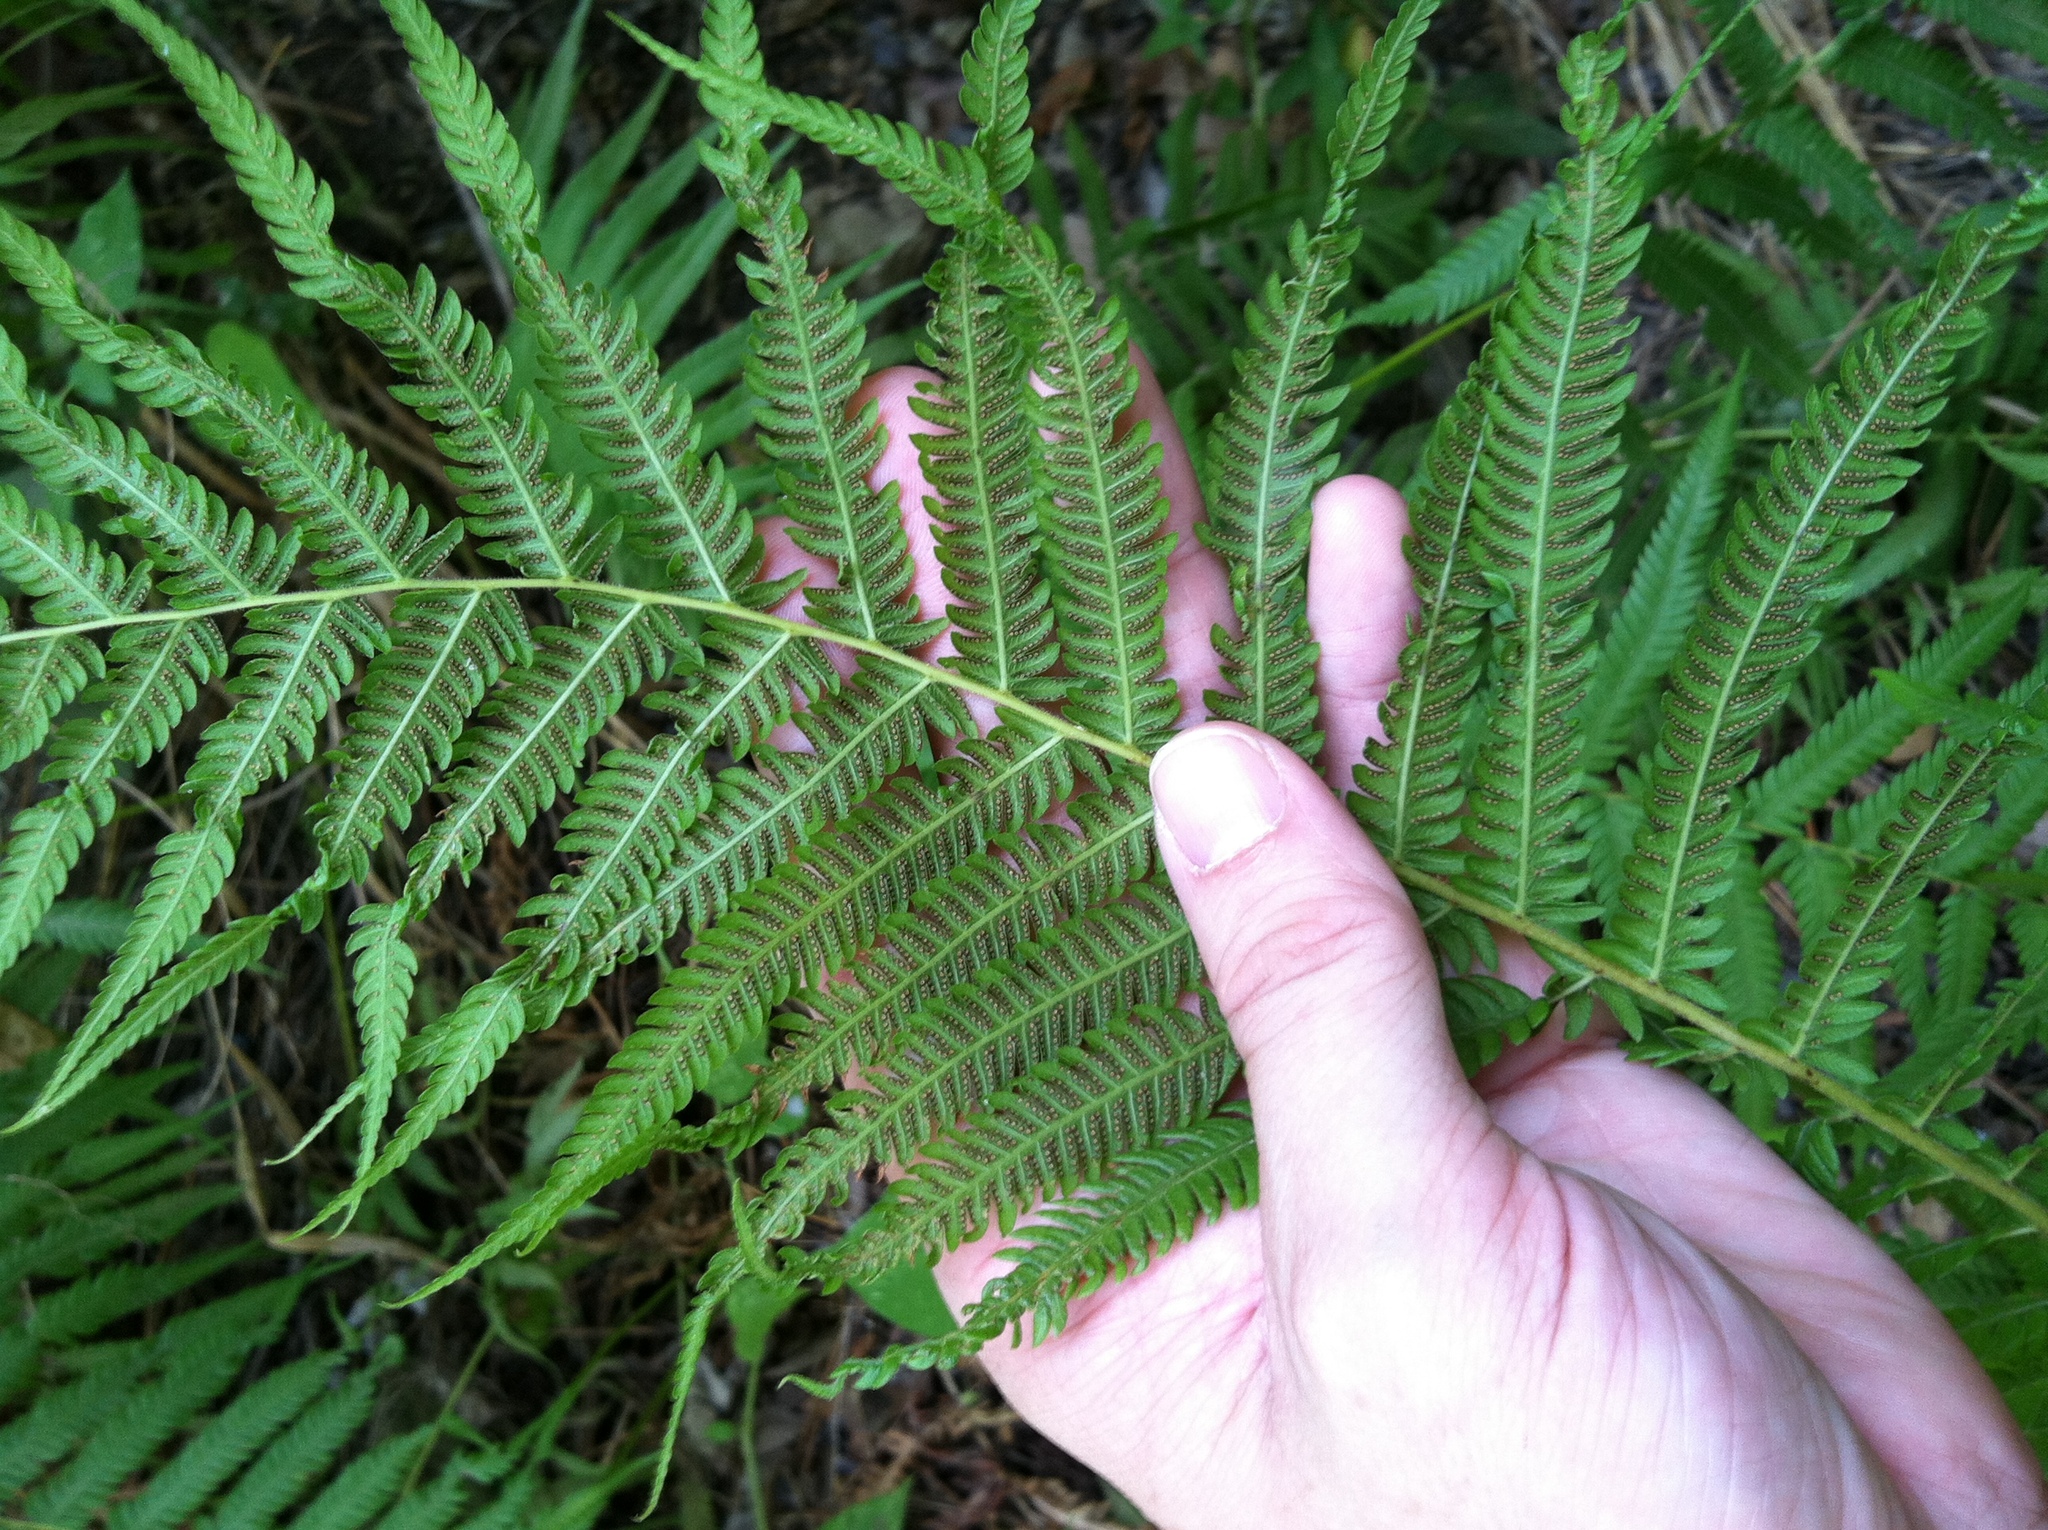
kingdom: Plantae
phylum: Tracheophyta
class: Polypodiopsida
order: Polypodiales
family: Thelypteridaceae
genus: Pelazoneuron
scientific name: Pelazoneuron ovatum
